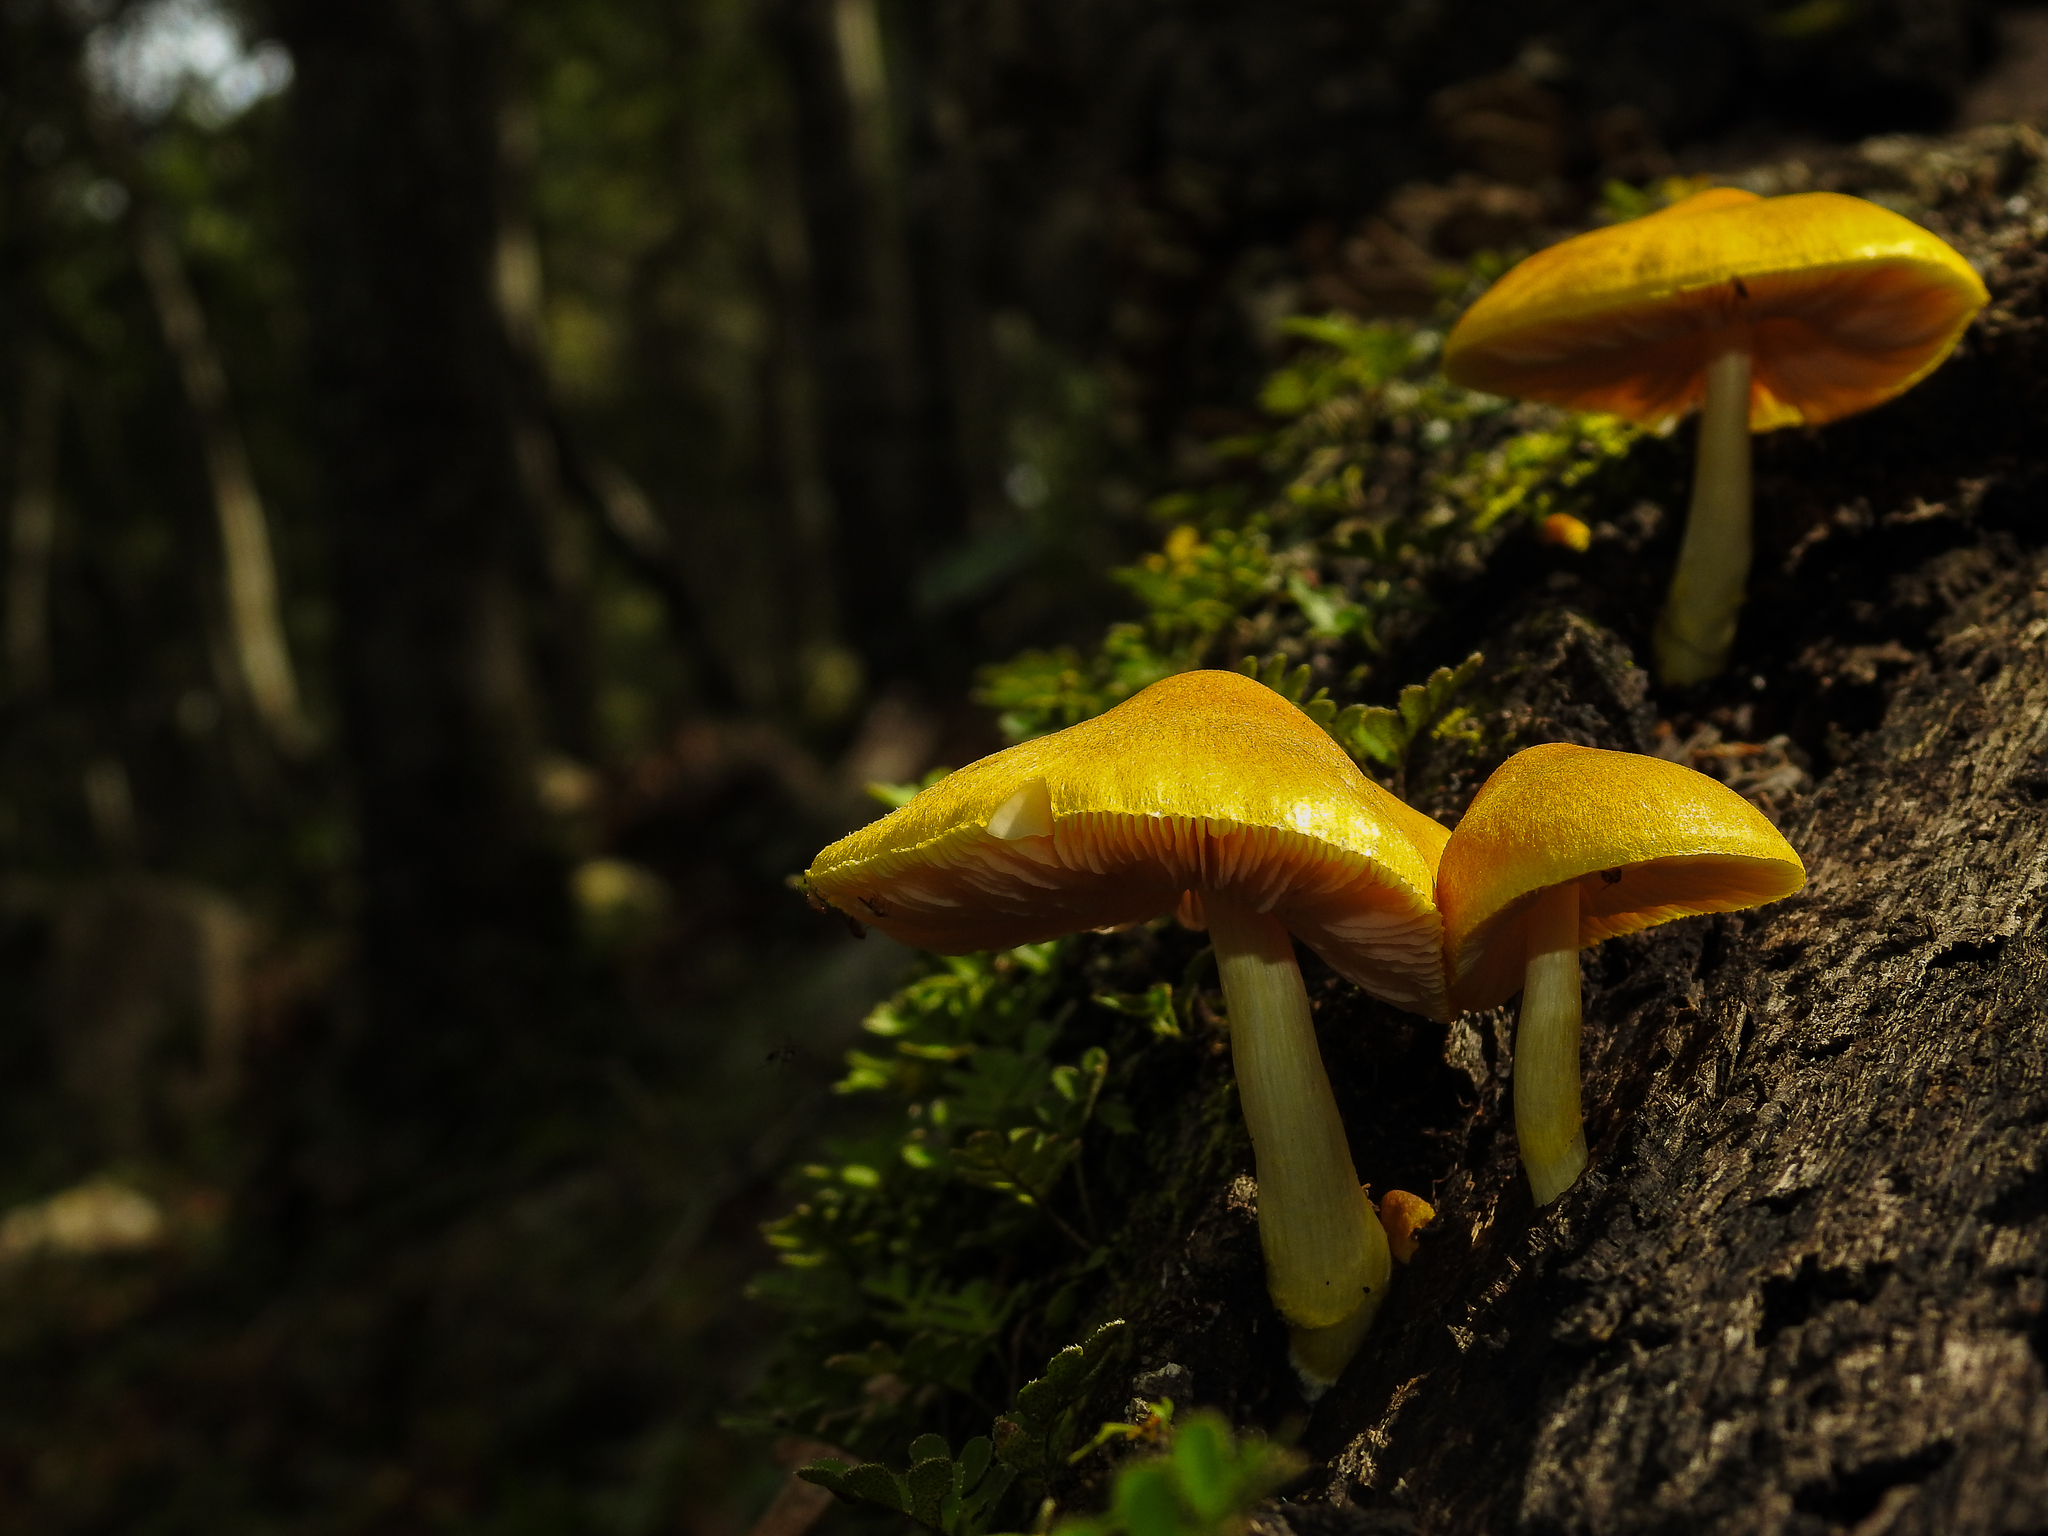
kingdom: Fungi
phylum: Basidiomycota
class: Agaricomycetes
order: Agaricales
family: Pluteaceae
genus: Pluteus
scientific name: Pluteus chrysophlebius
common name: Yellow deer mushroom
